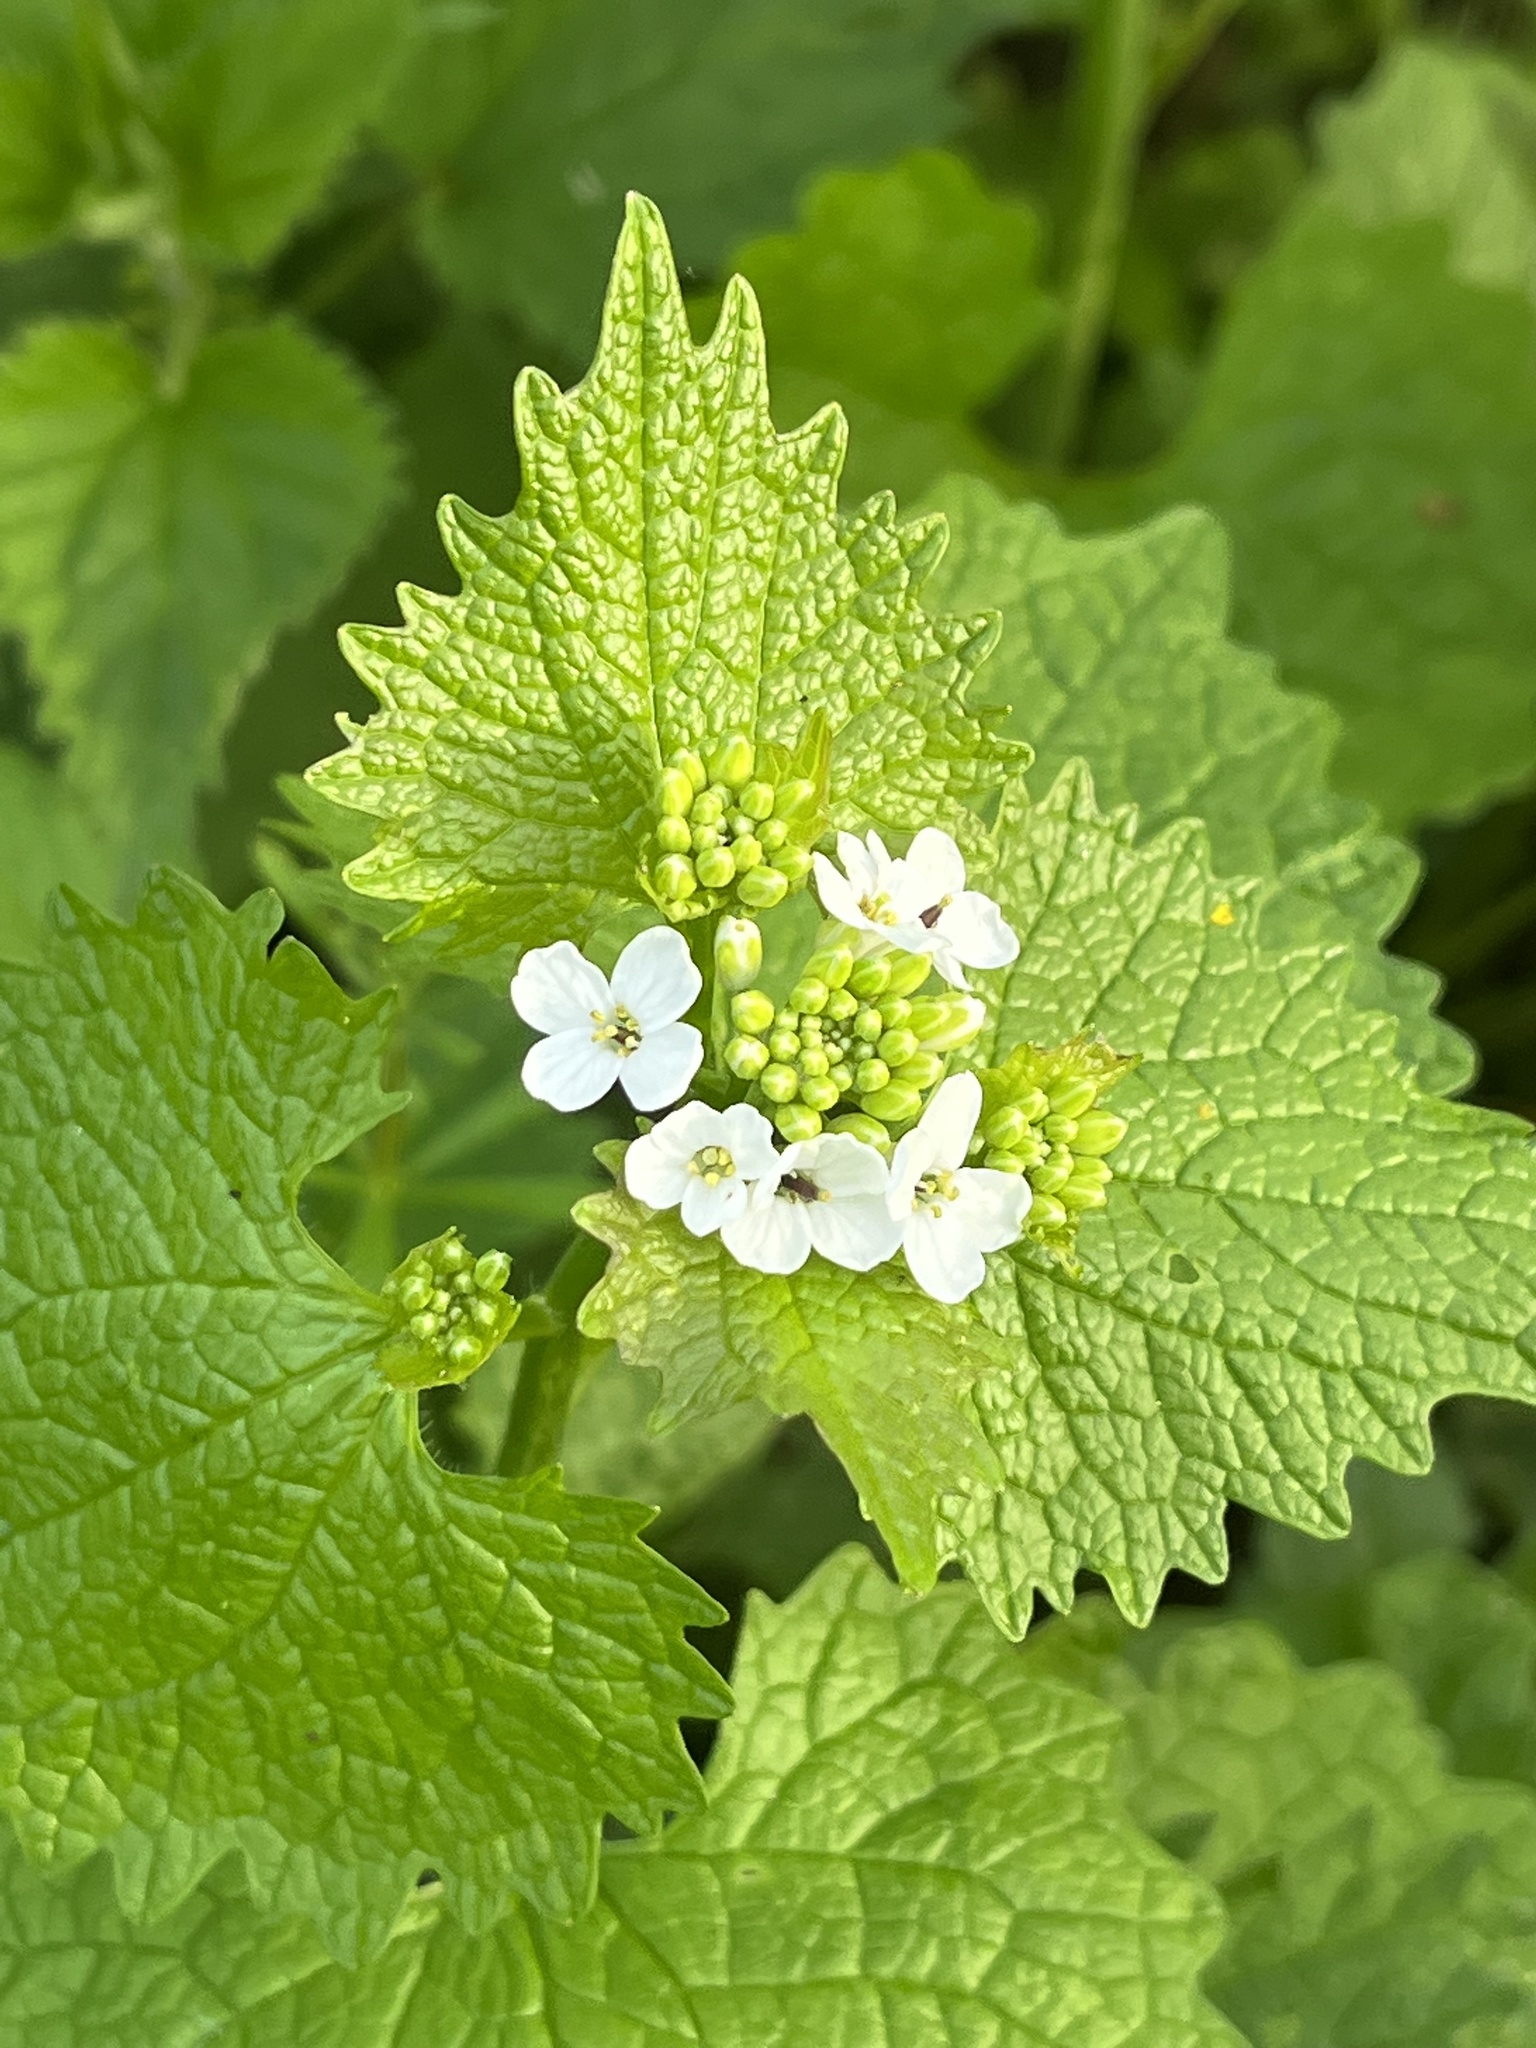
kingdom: Plantae
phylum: Tracheophyta
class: Magnoliopsida
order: Brassicales
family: Brassicaceae
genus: Alliaria
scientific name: Alliaria petiolata
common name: Garlic mustard
